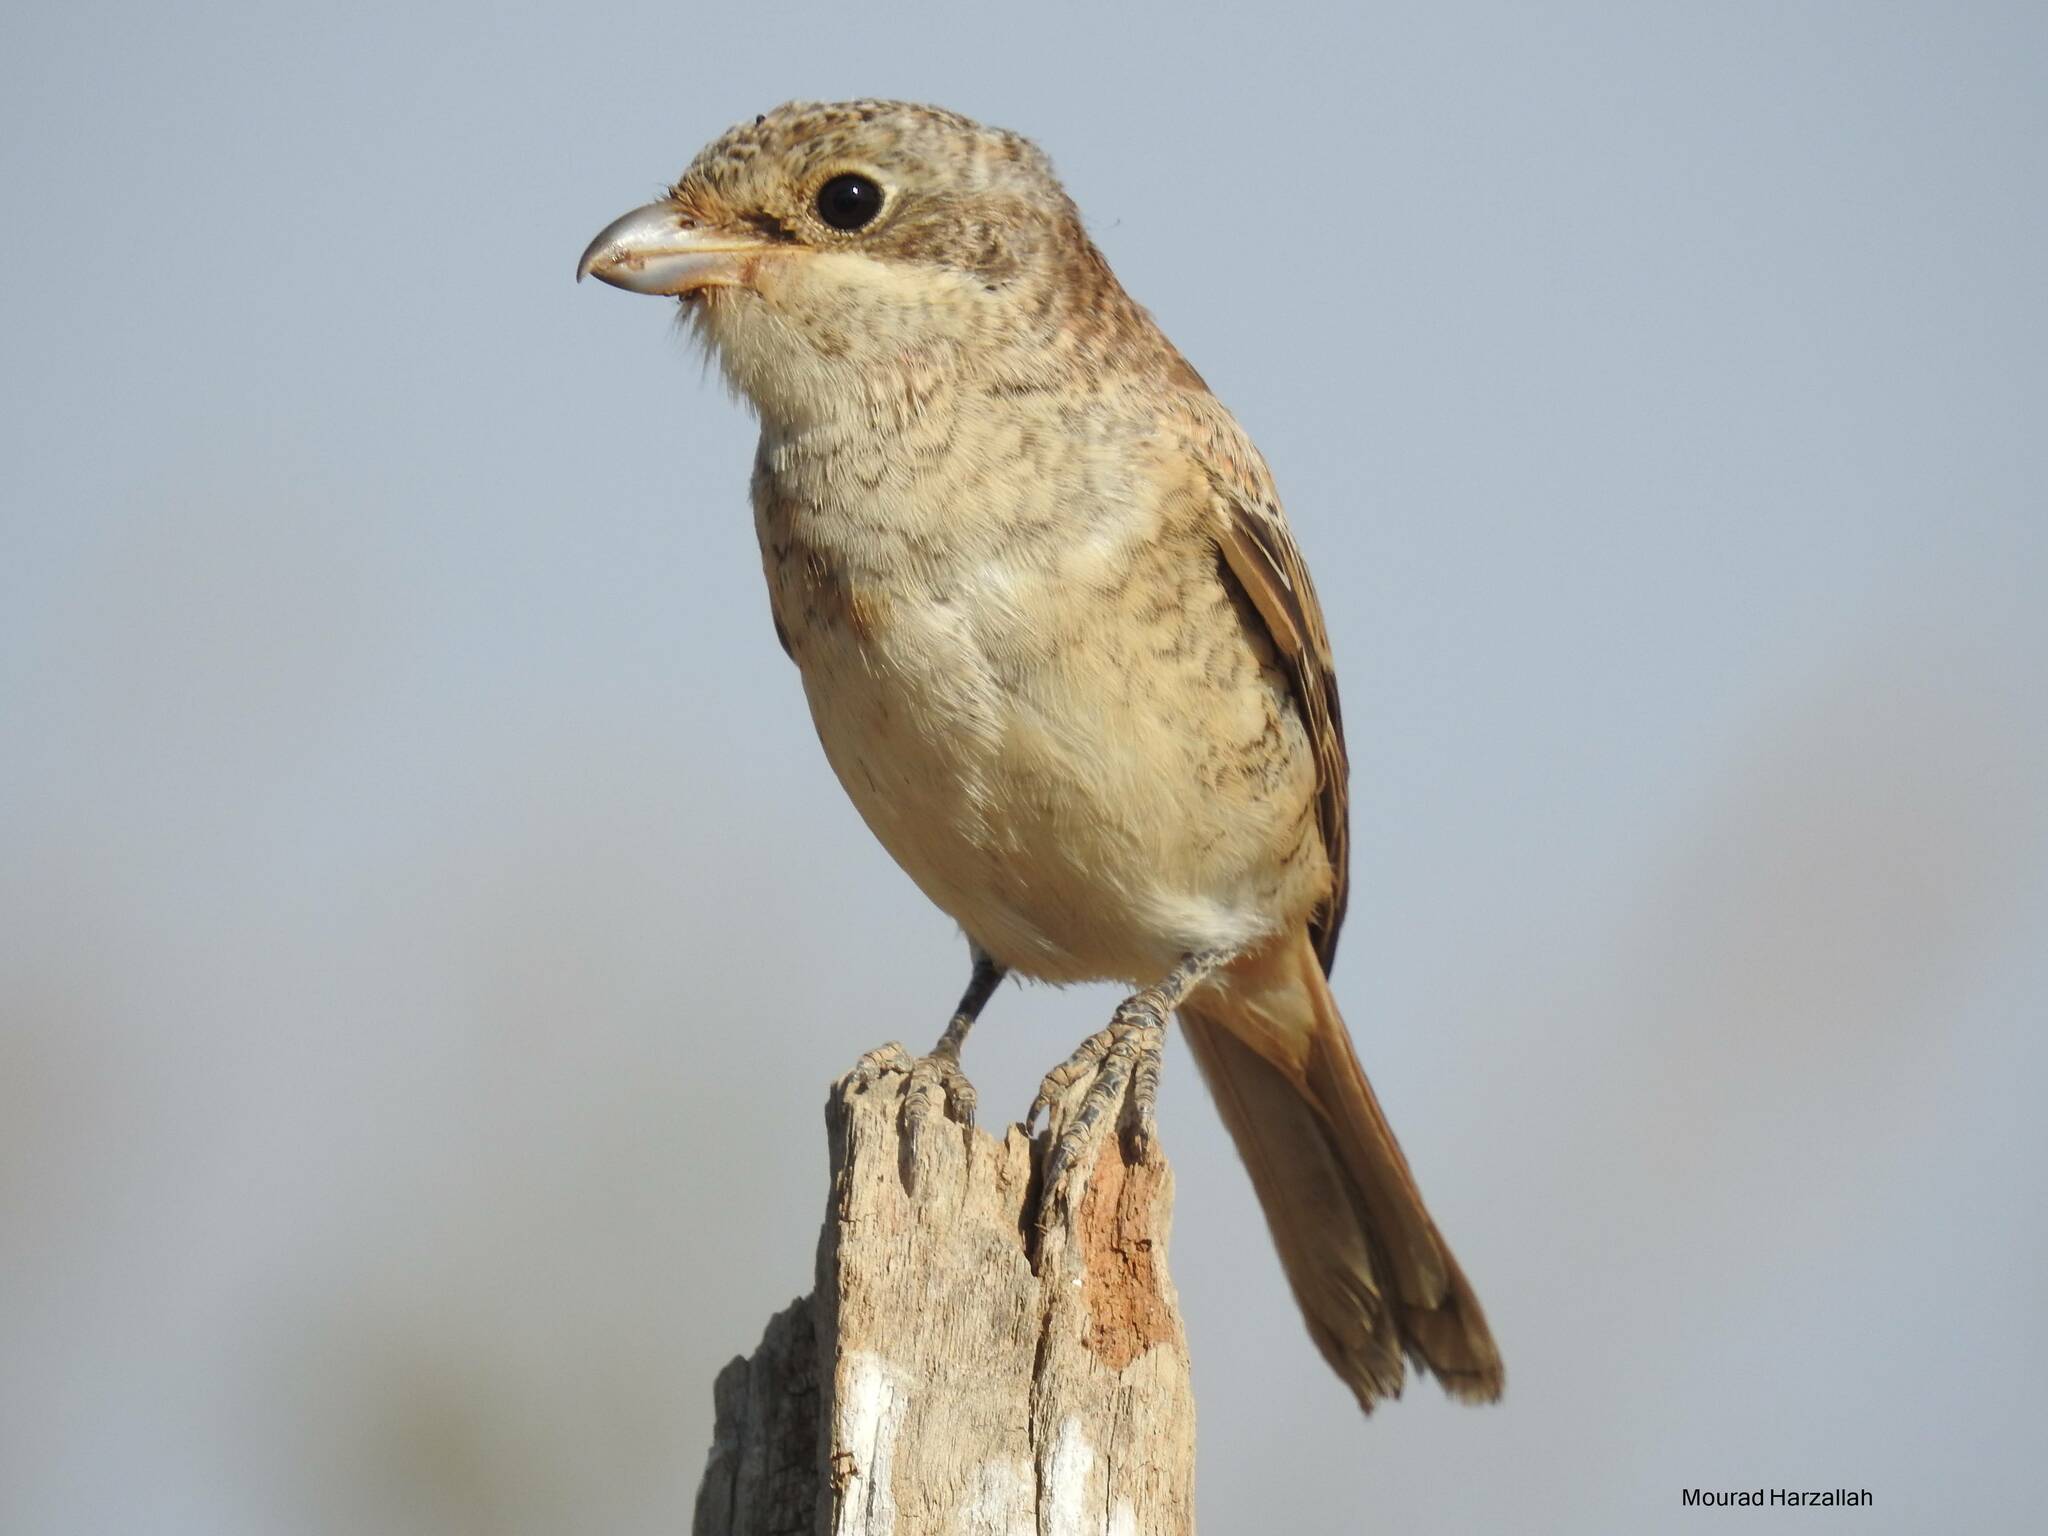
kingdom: Animalia
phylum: Chordata
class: Aves
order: Passeriformes
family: Laniidae
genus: Lanius
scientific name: Lanius senator
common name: Woodchat shrike
